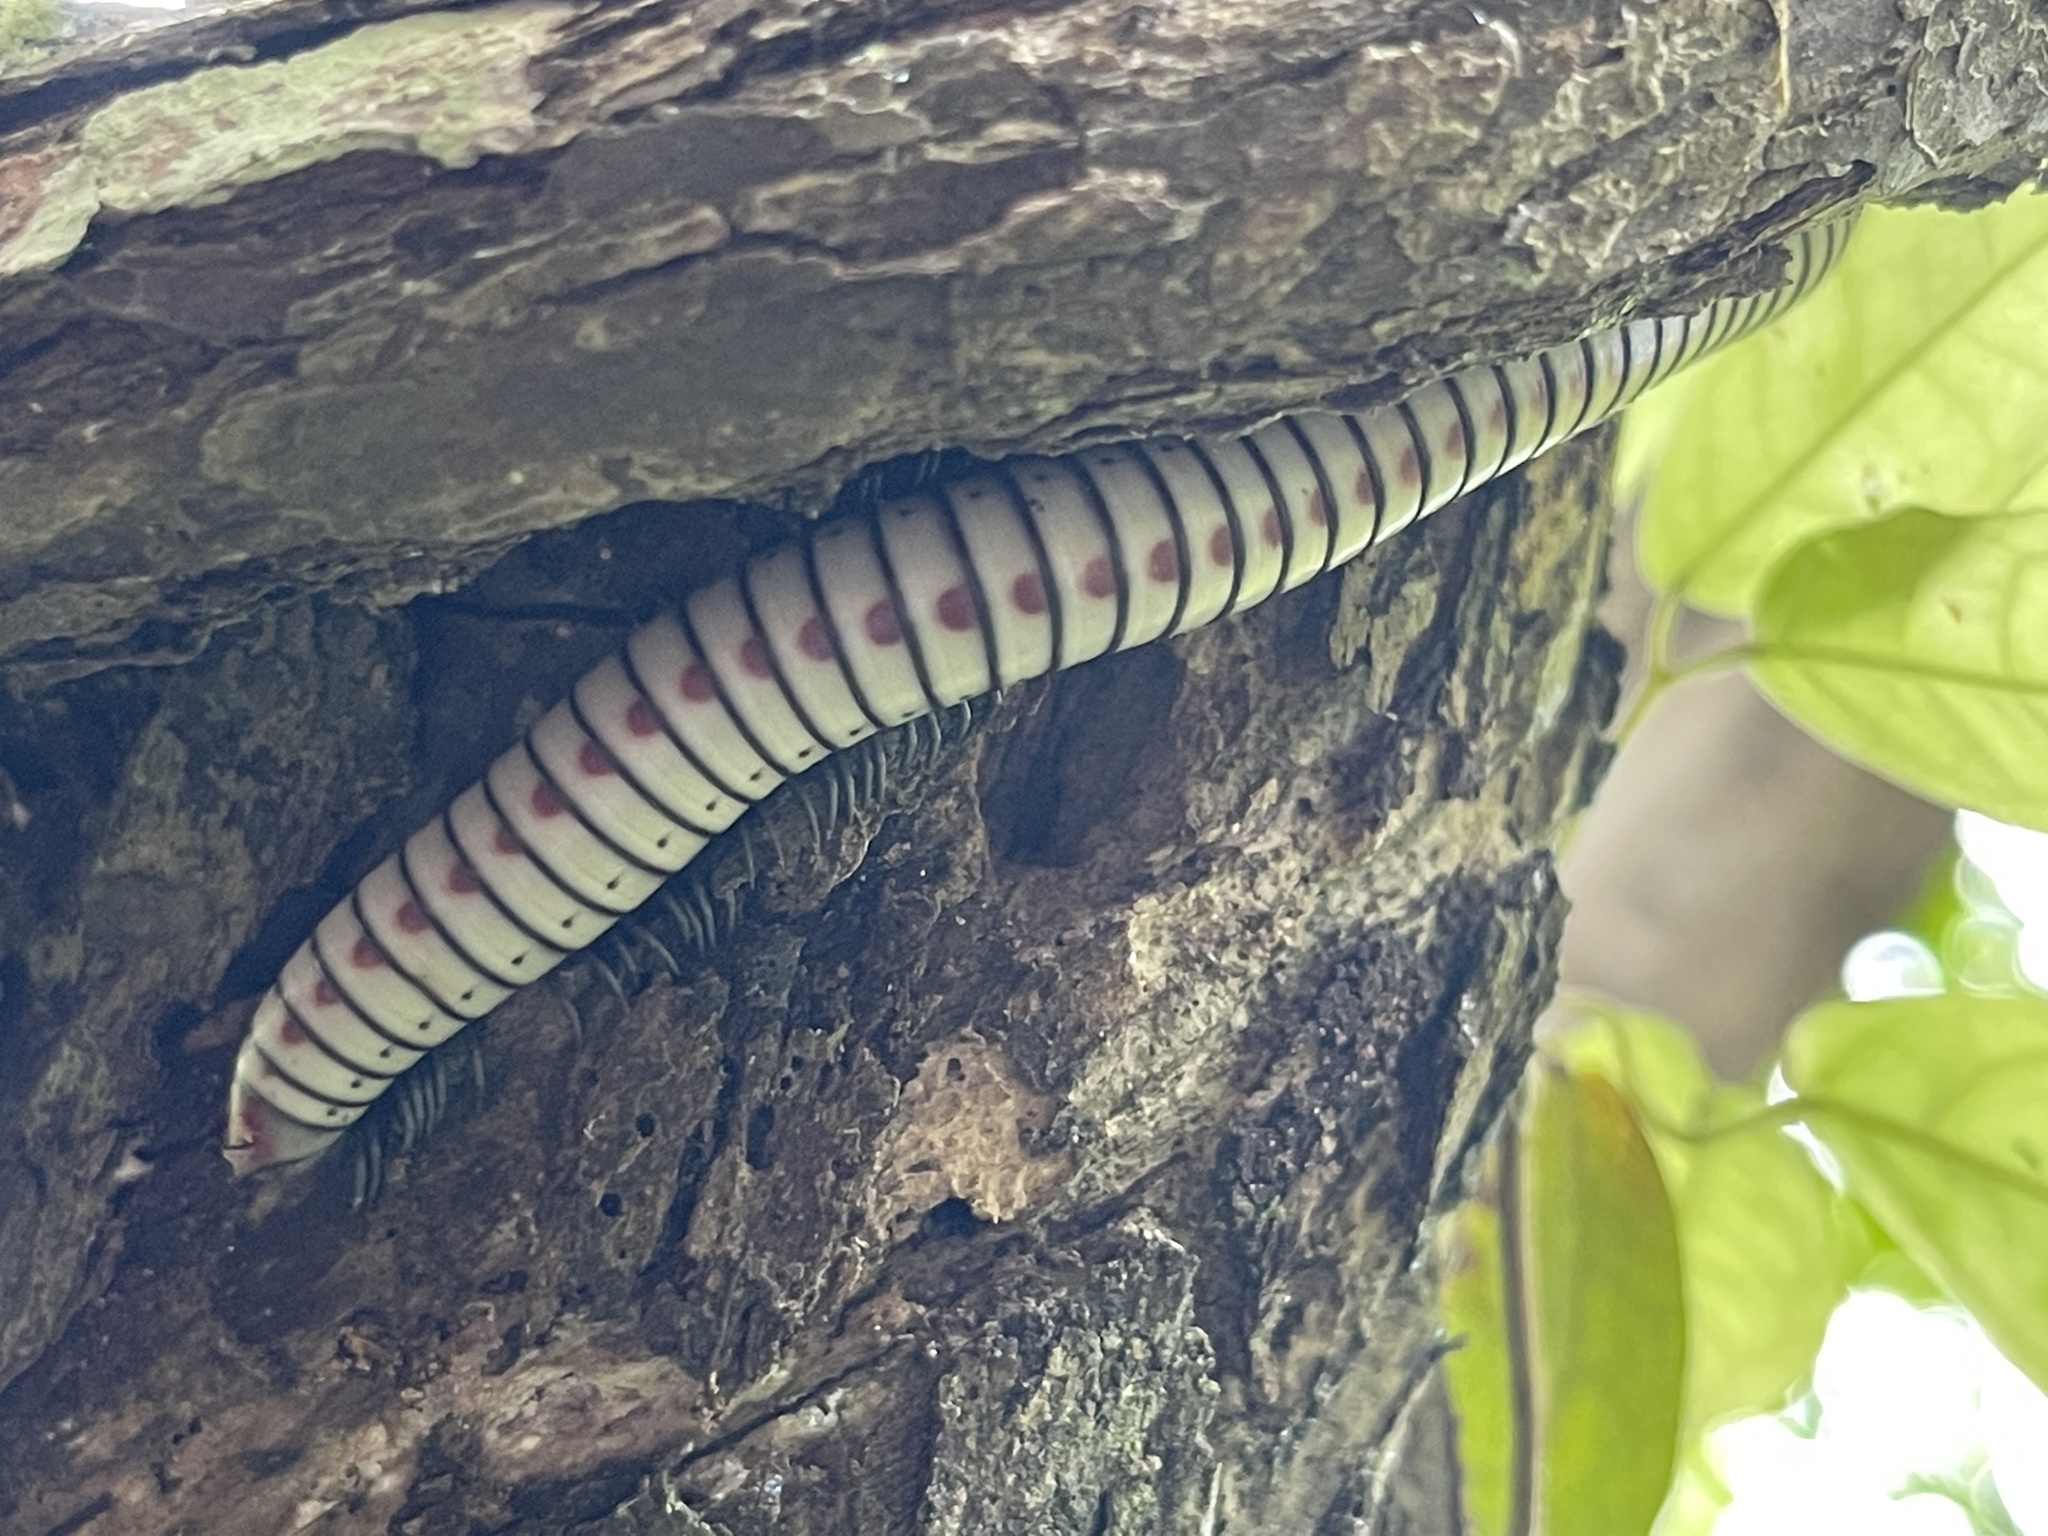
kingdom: Animalia
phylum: Arthropoda
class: Diplopoda
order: Spirobolida
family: Rhinocricidae
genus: Anadenobolus
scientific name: Anadenobolus arboreus
